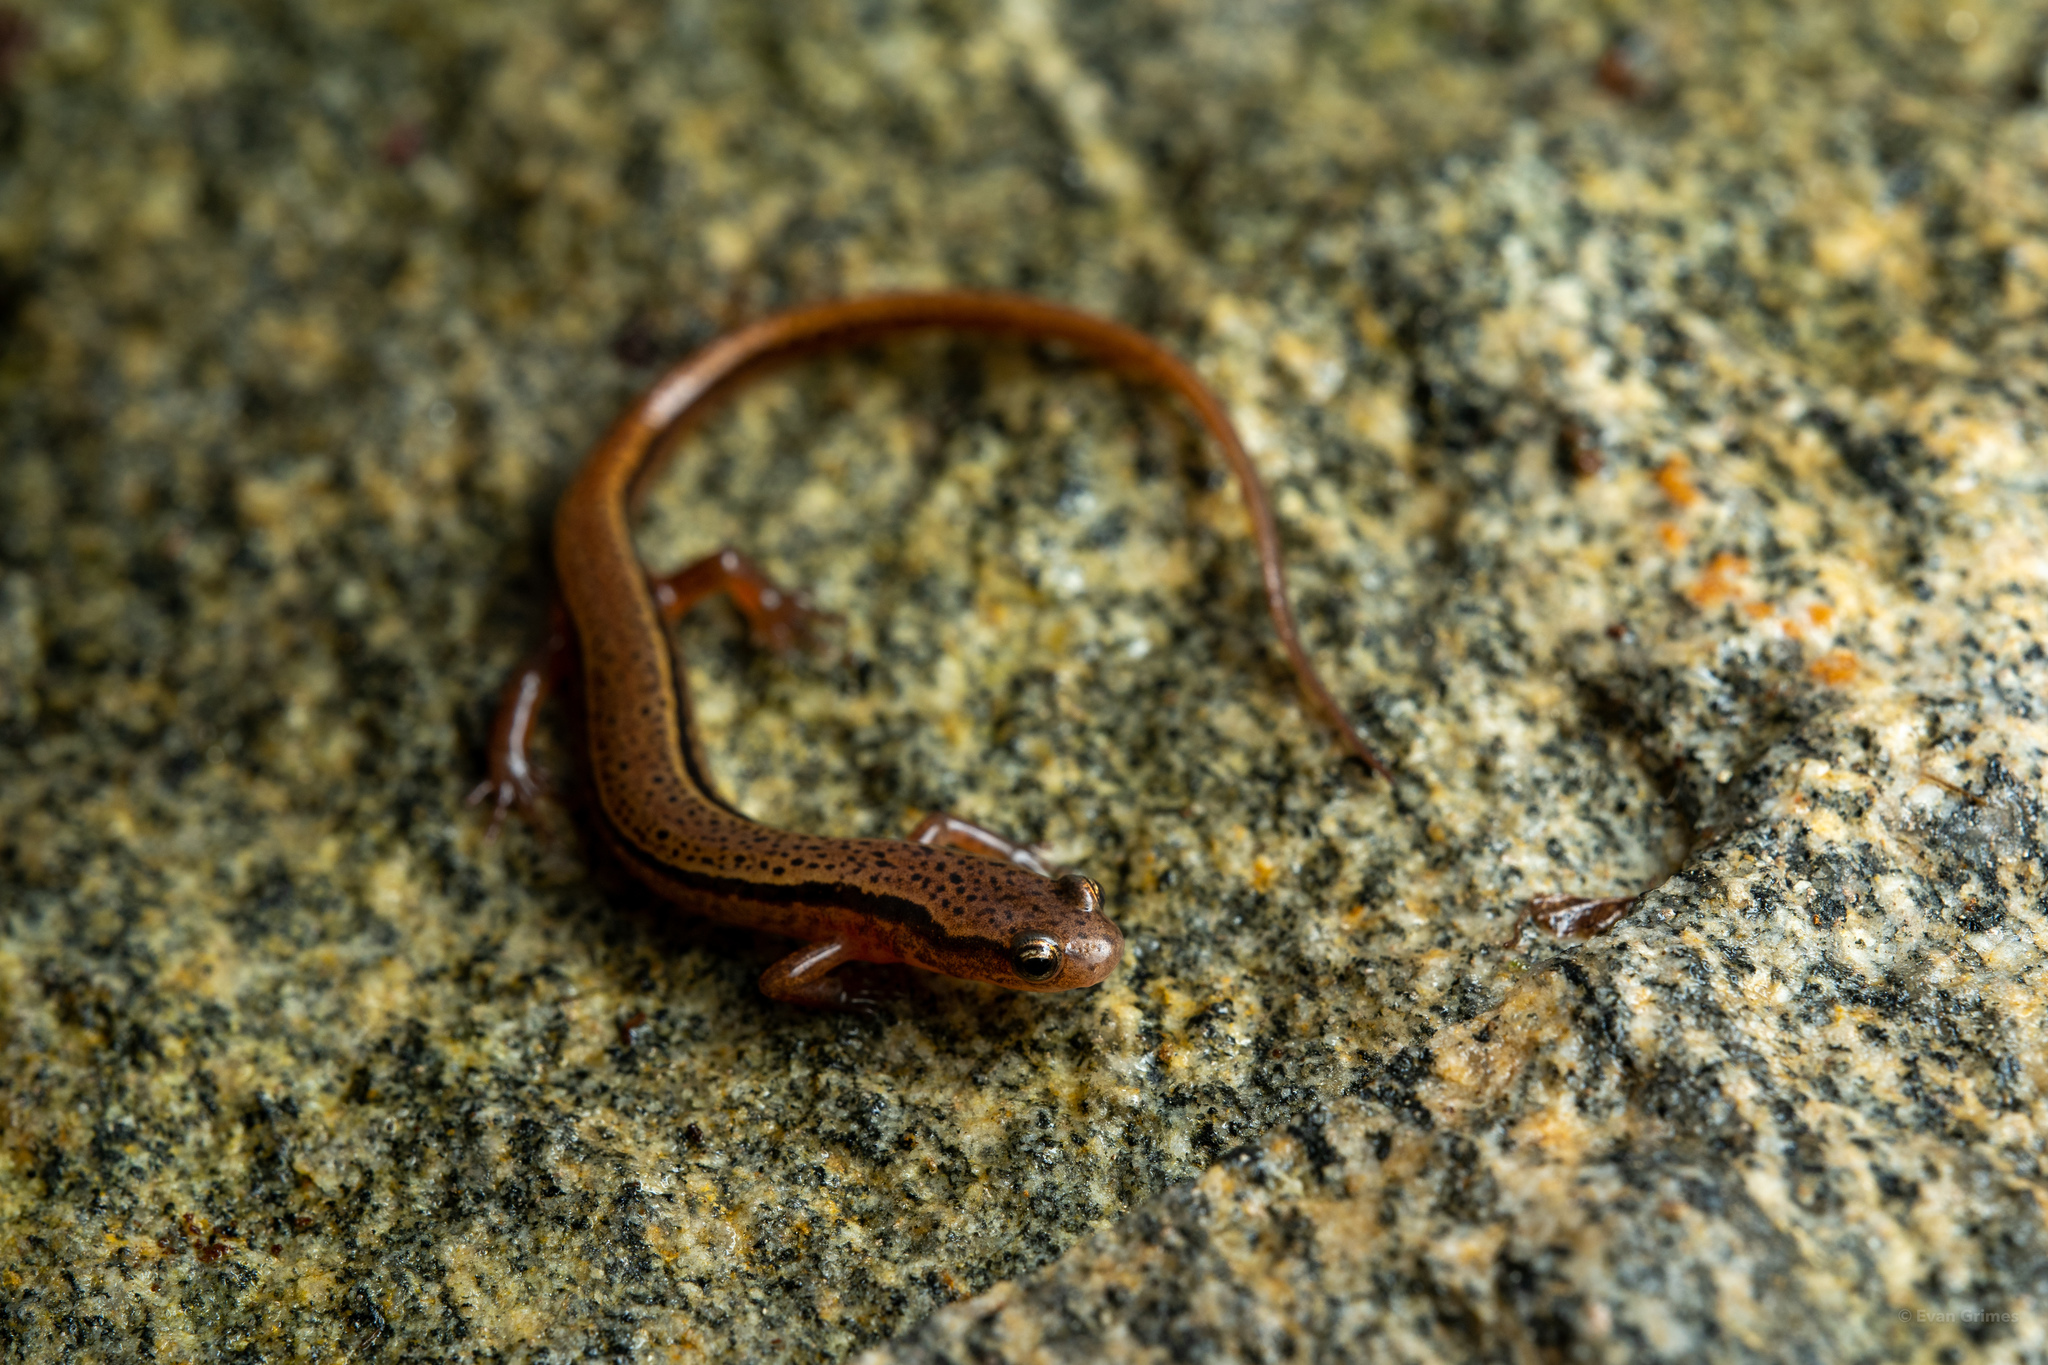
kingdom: Animalia
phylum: Chordata
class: Amphibia
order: Caudata
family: Plethodontidae
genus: Eurycea
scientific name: Eurycea wilderae
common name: Blue ridge two-lined salamander
